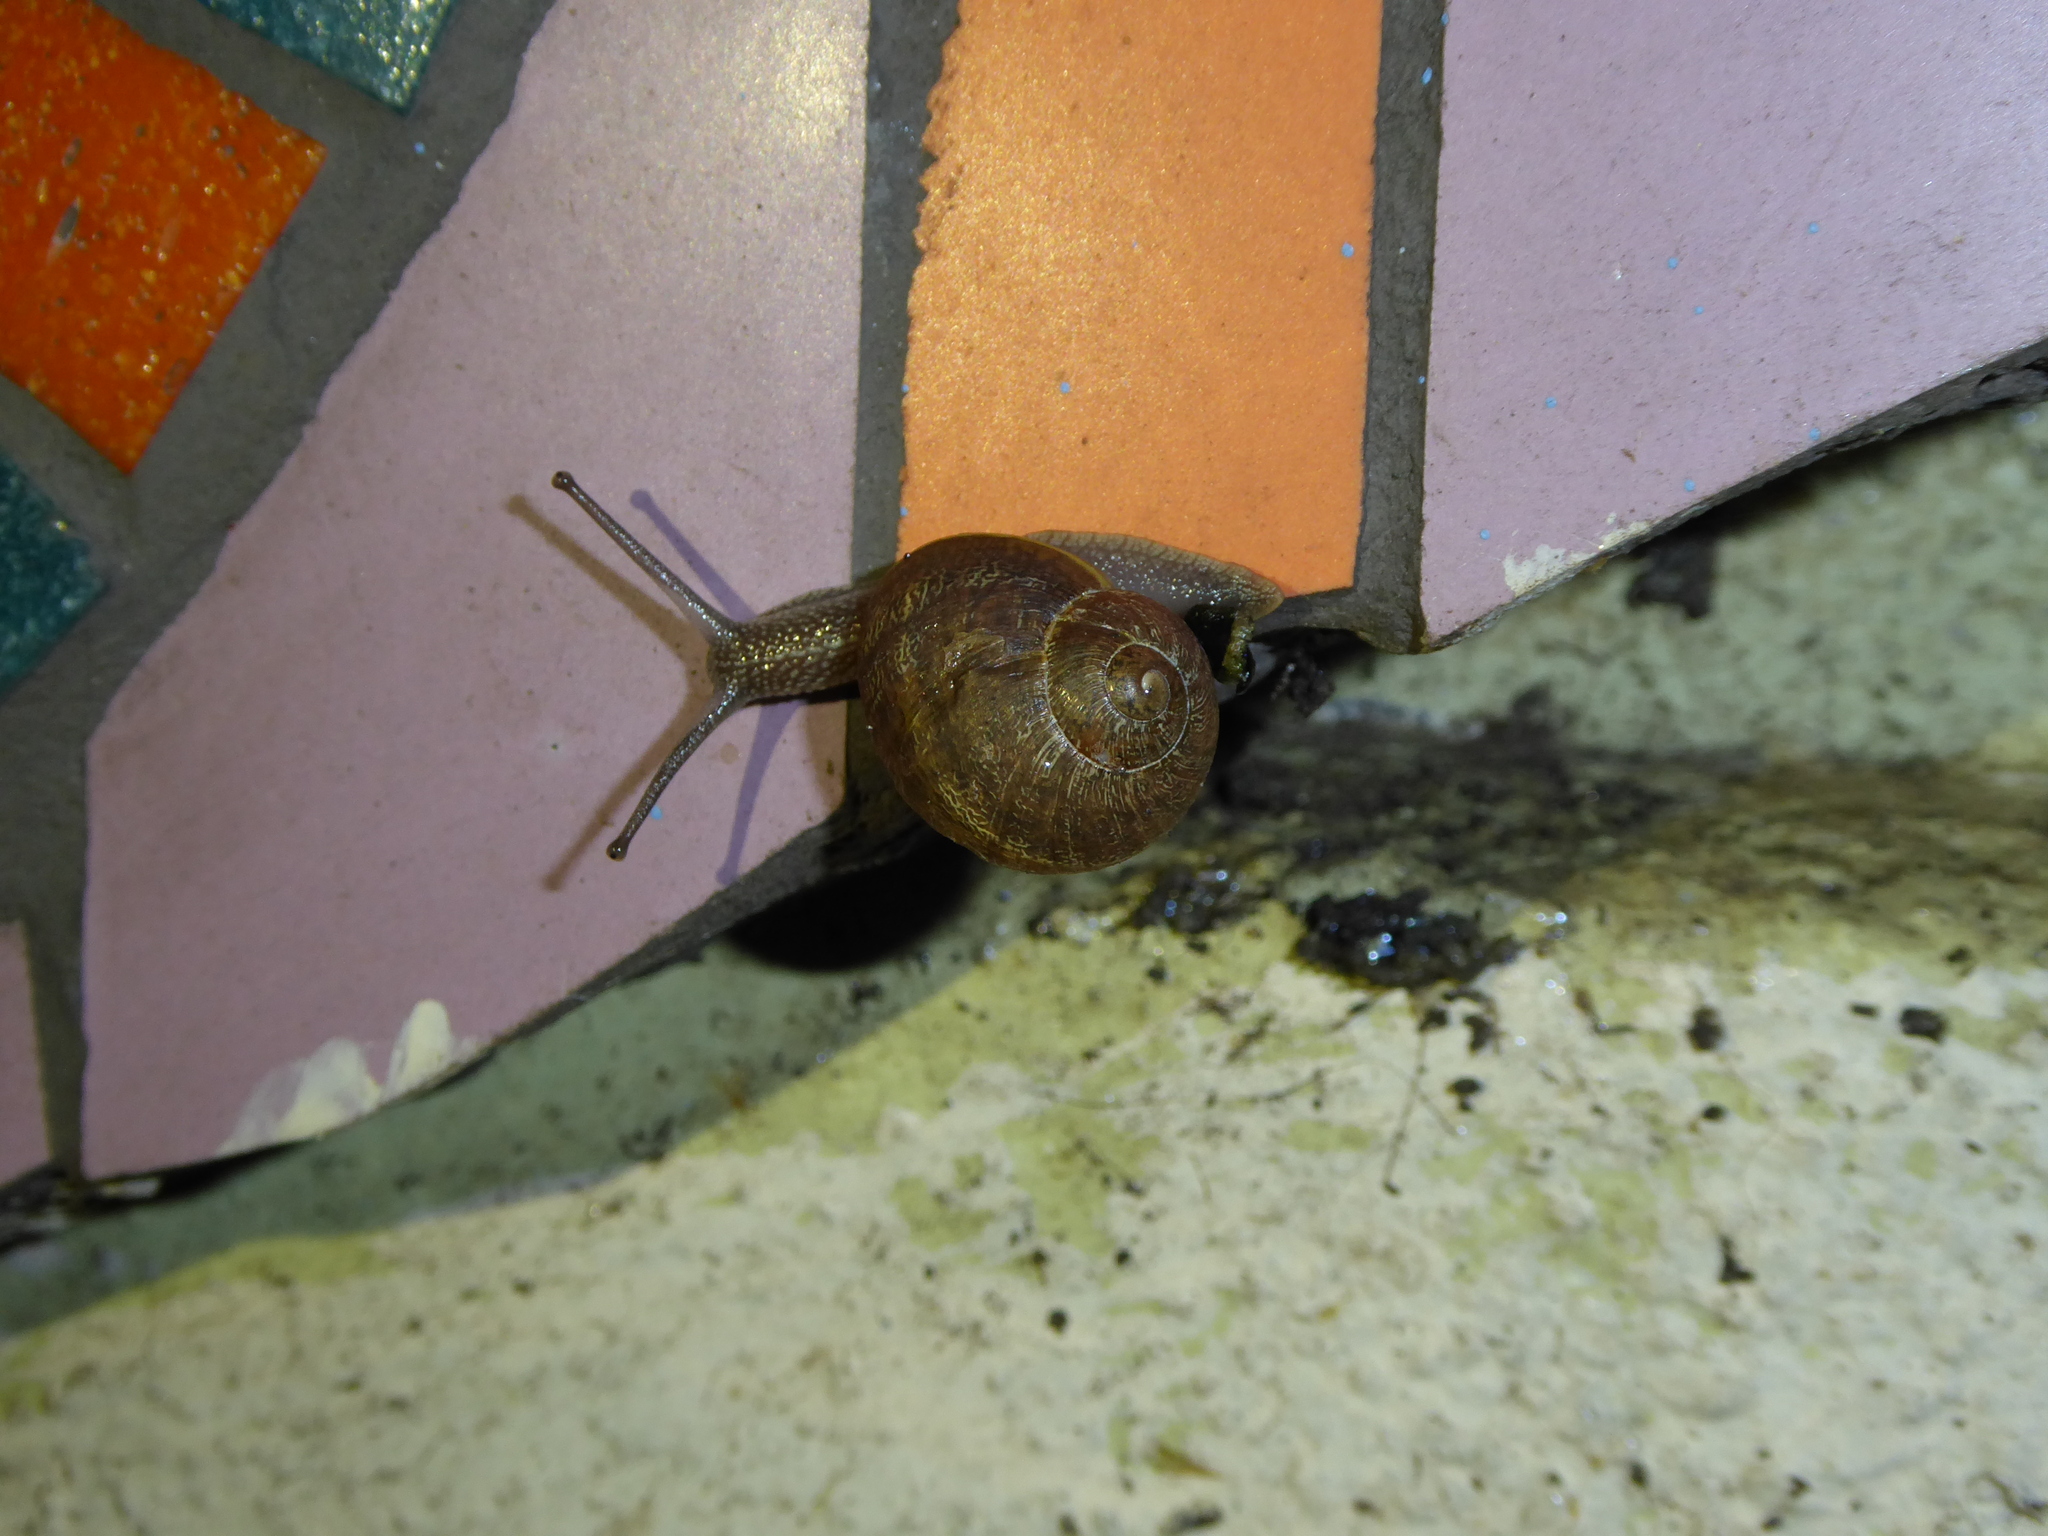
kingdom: Animalia
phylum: Mollusca
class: Gastropoda
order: Stylommatophora
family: Helicidae
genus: Cornu
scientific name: Cornu aspersum
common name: Brown garden snail
